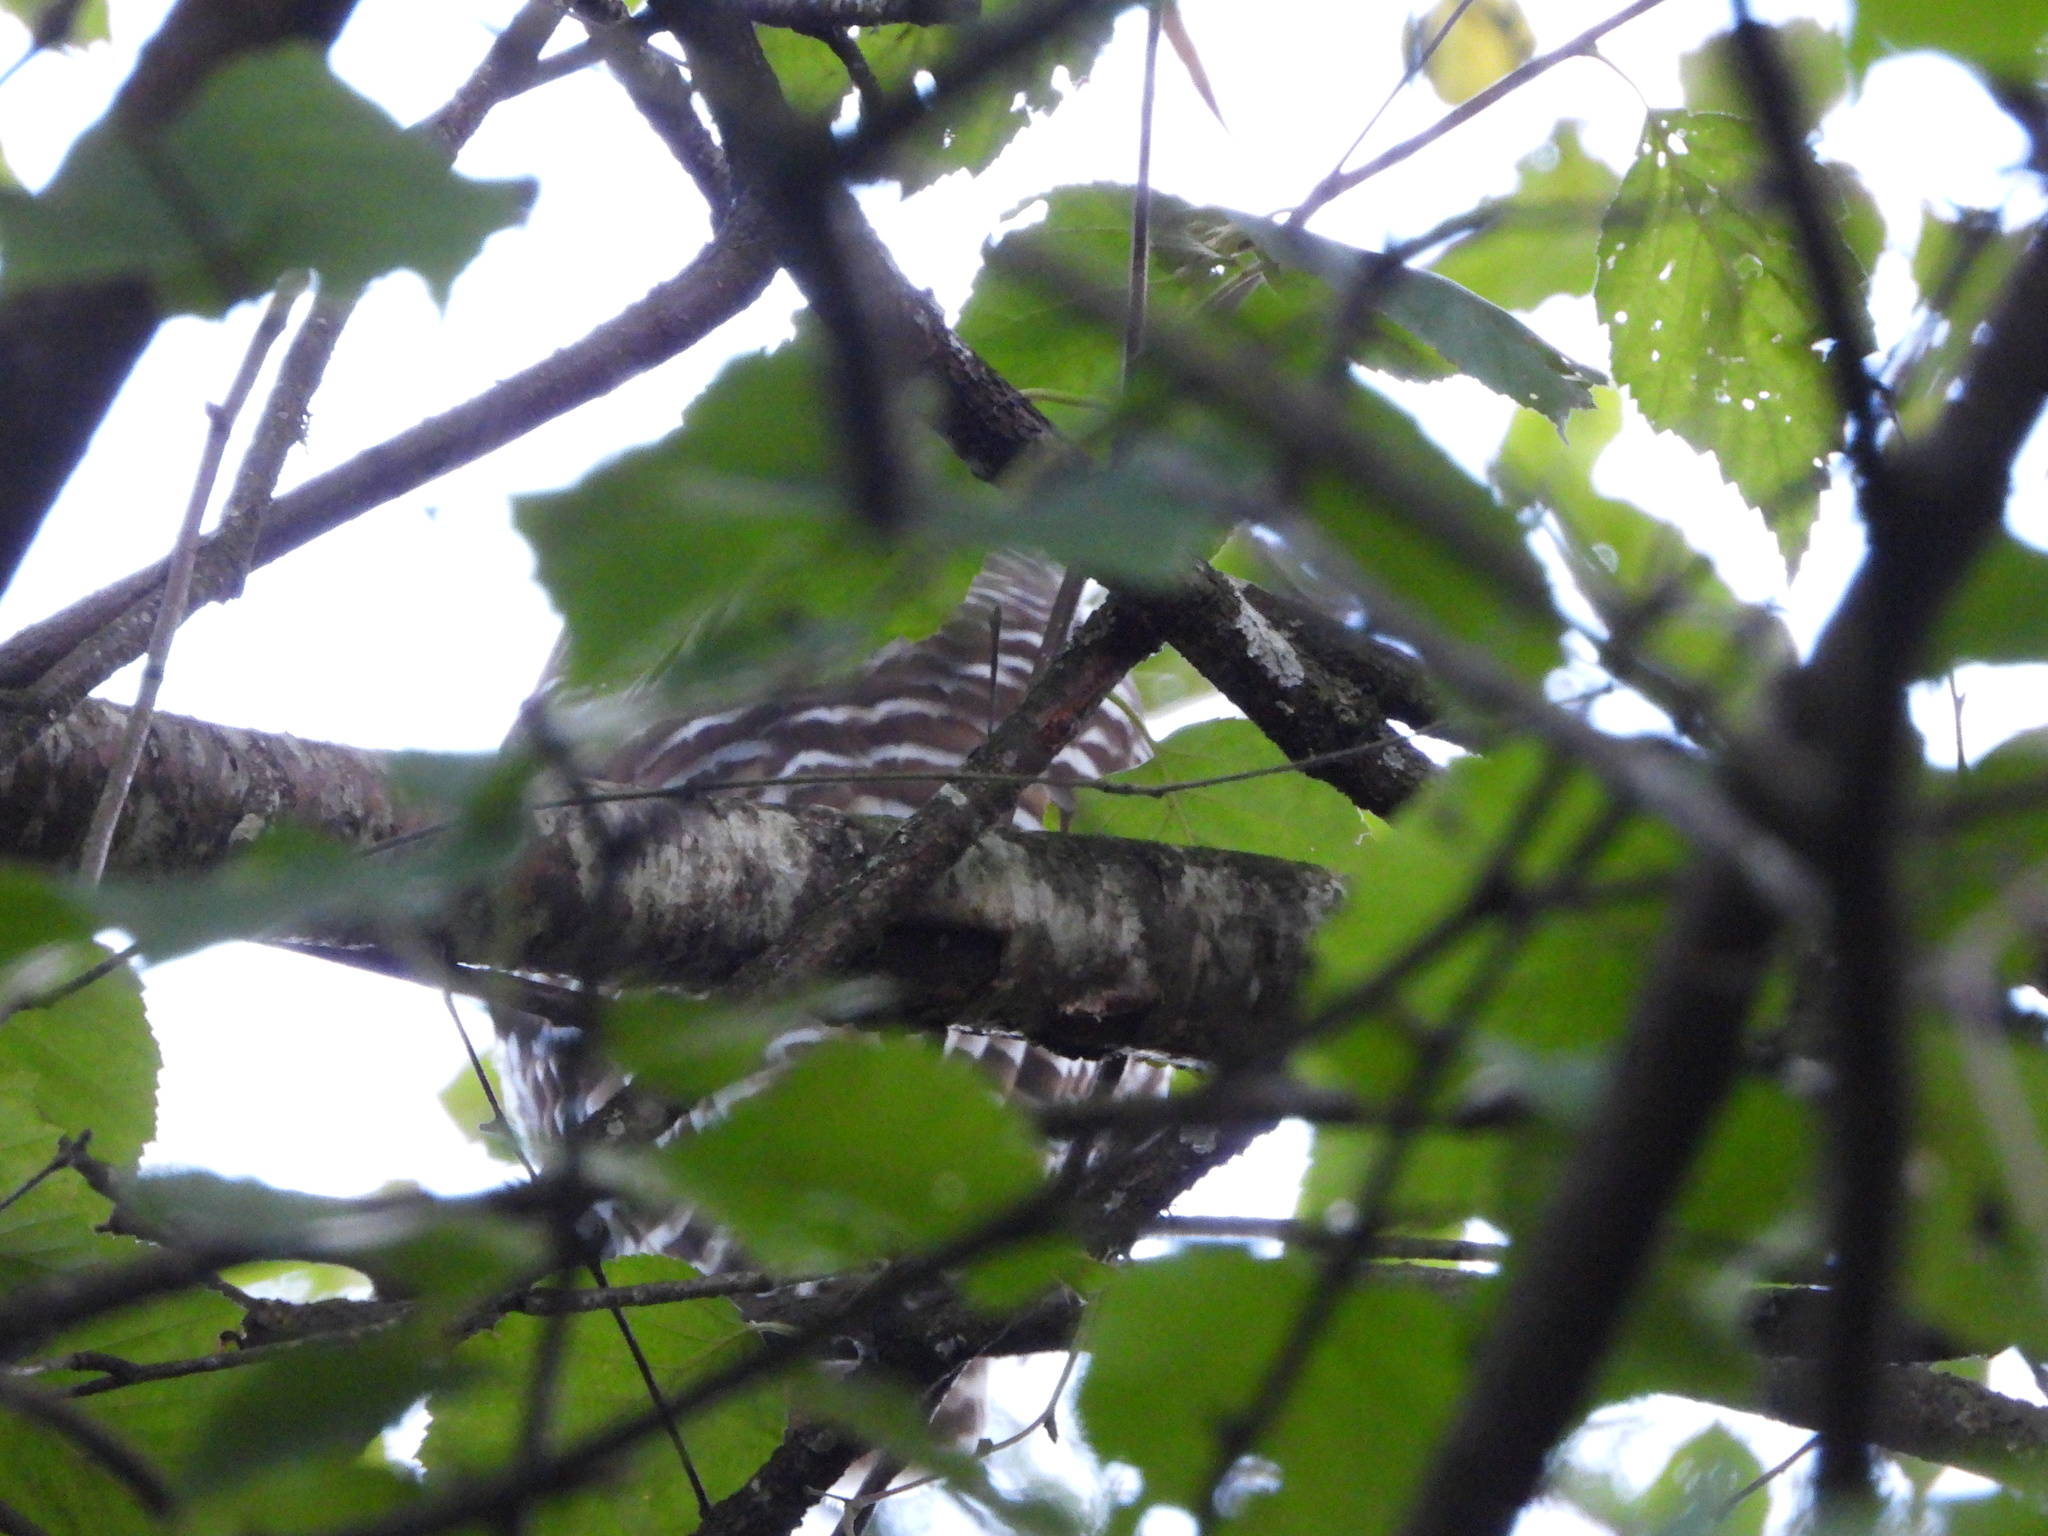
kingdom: Animalia
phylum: Chordata
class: Aves
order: Strigiformes
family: Strigidae
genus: Strix
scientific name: Strix varia
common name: Barred owl
